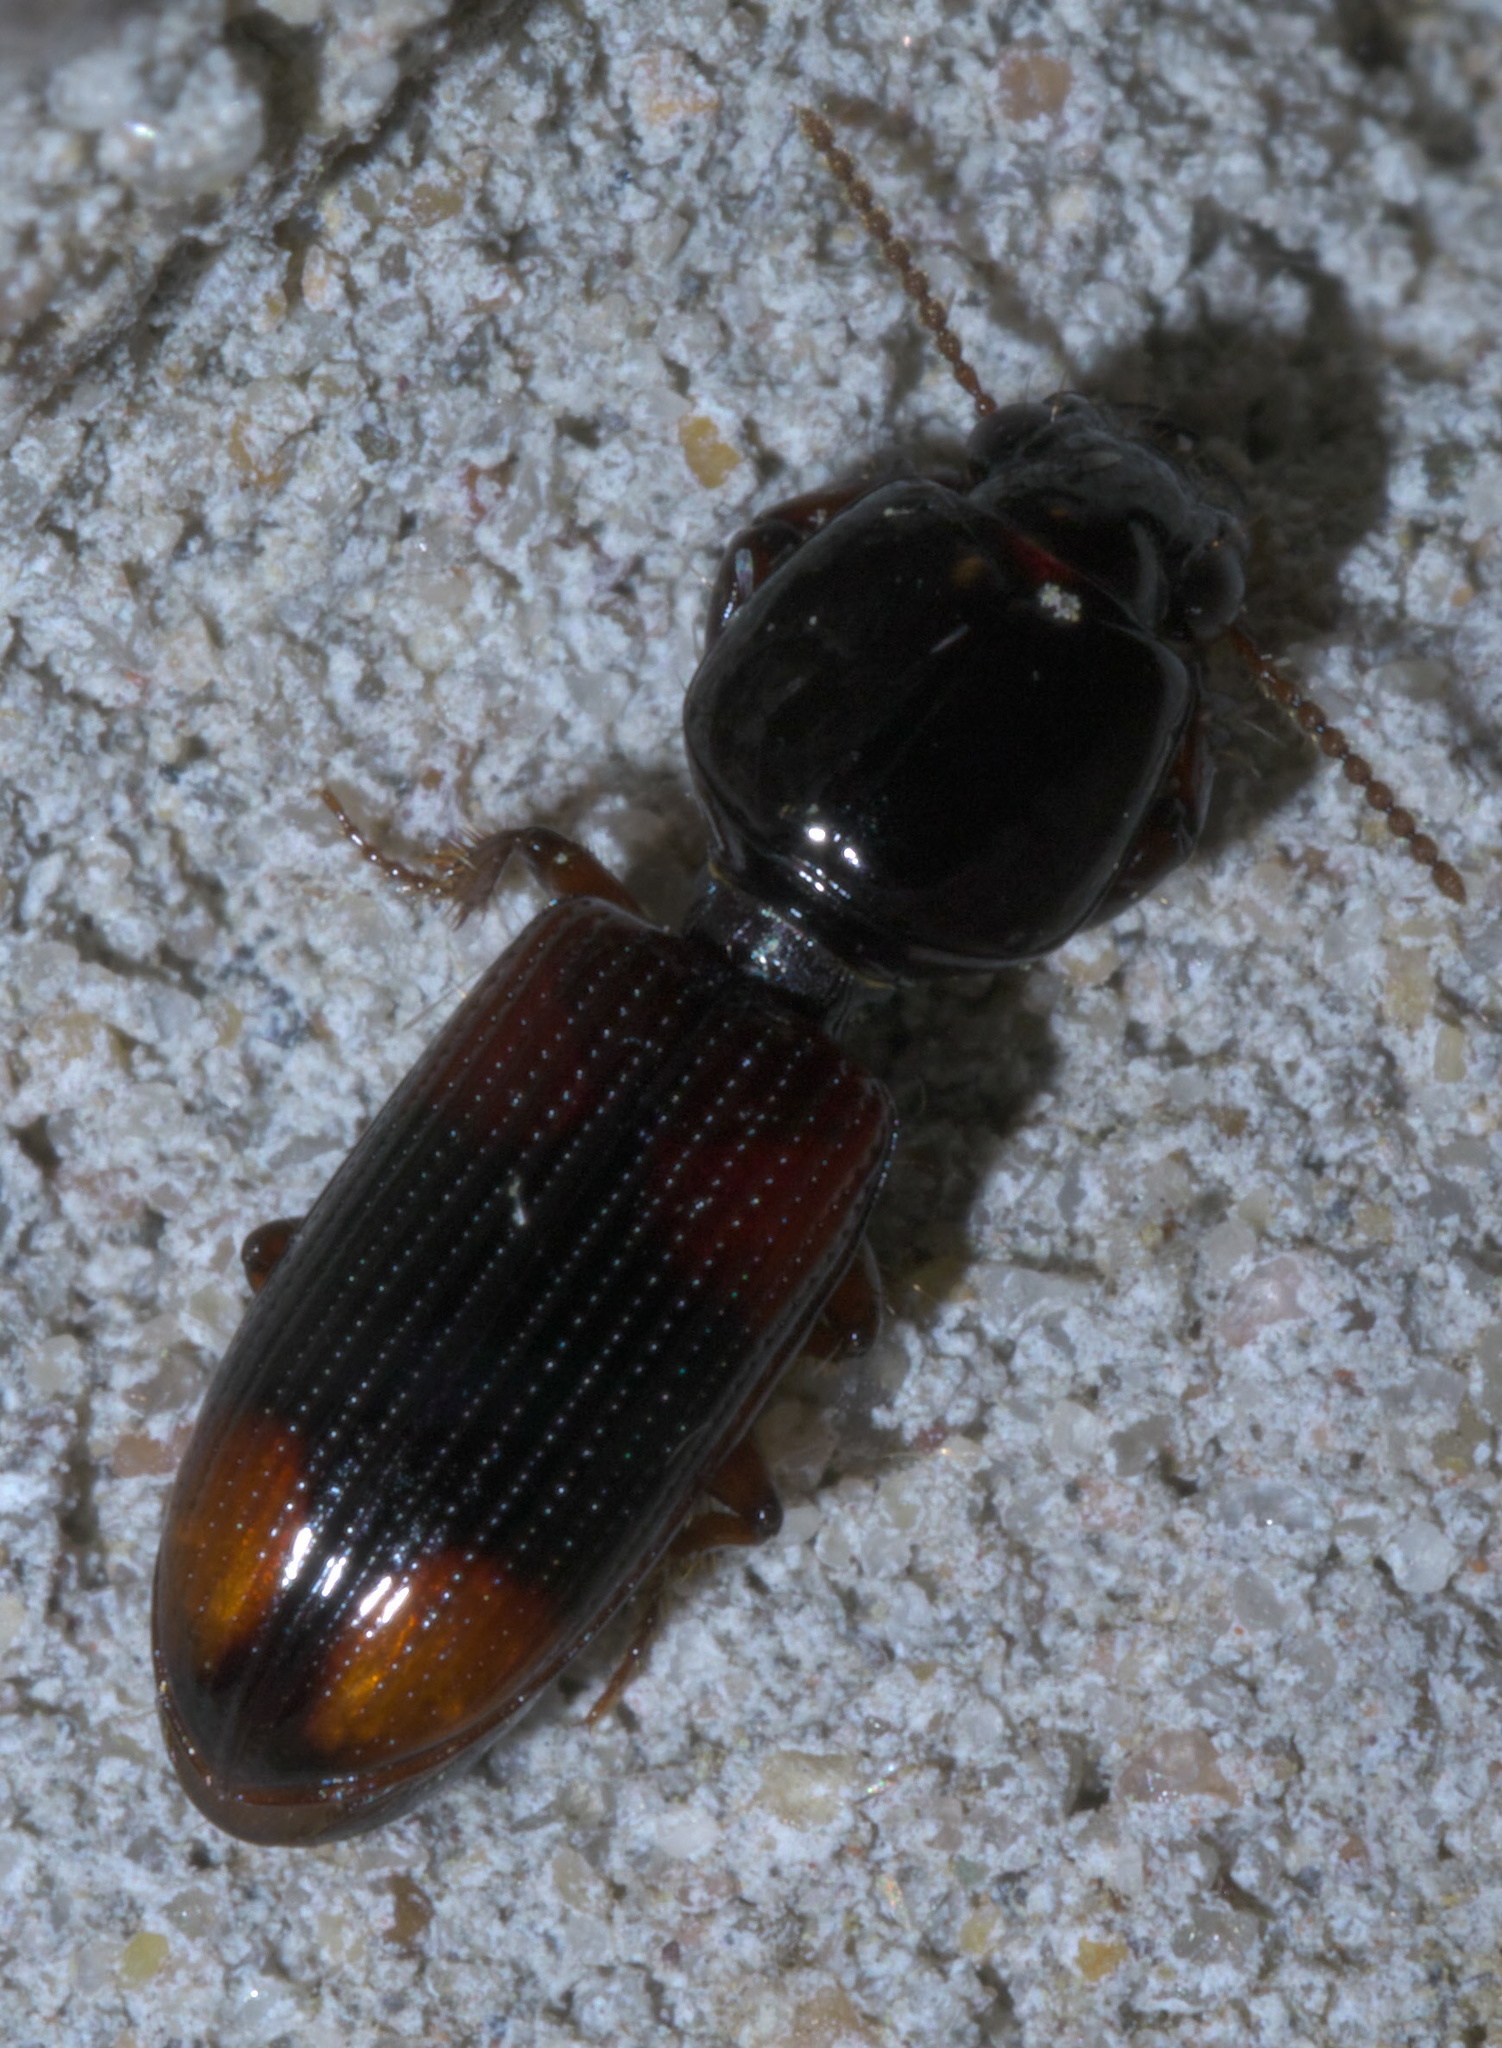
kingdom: Animalia
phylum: Arthropoda
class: Insecta
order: Coleoptera
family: Carabidae
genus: Clivina
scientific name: Clivina bipustulata
